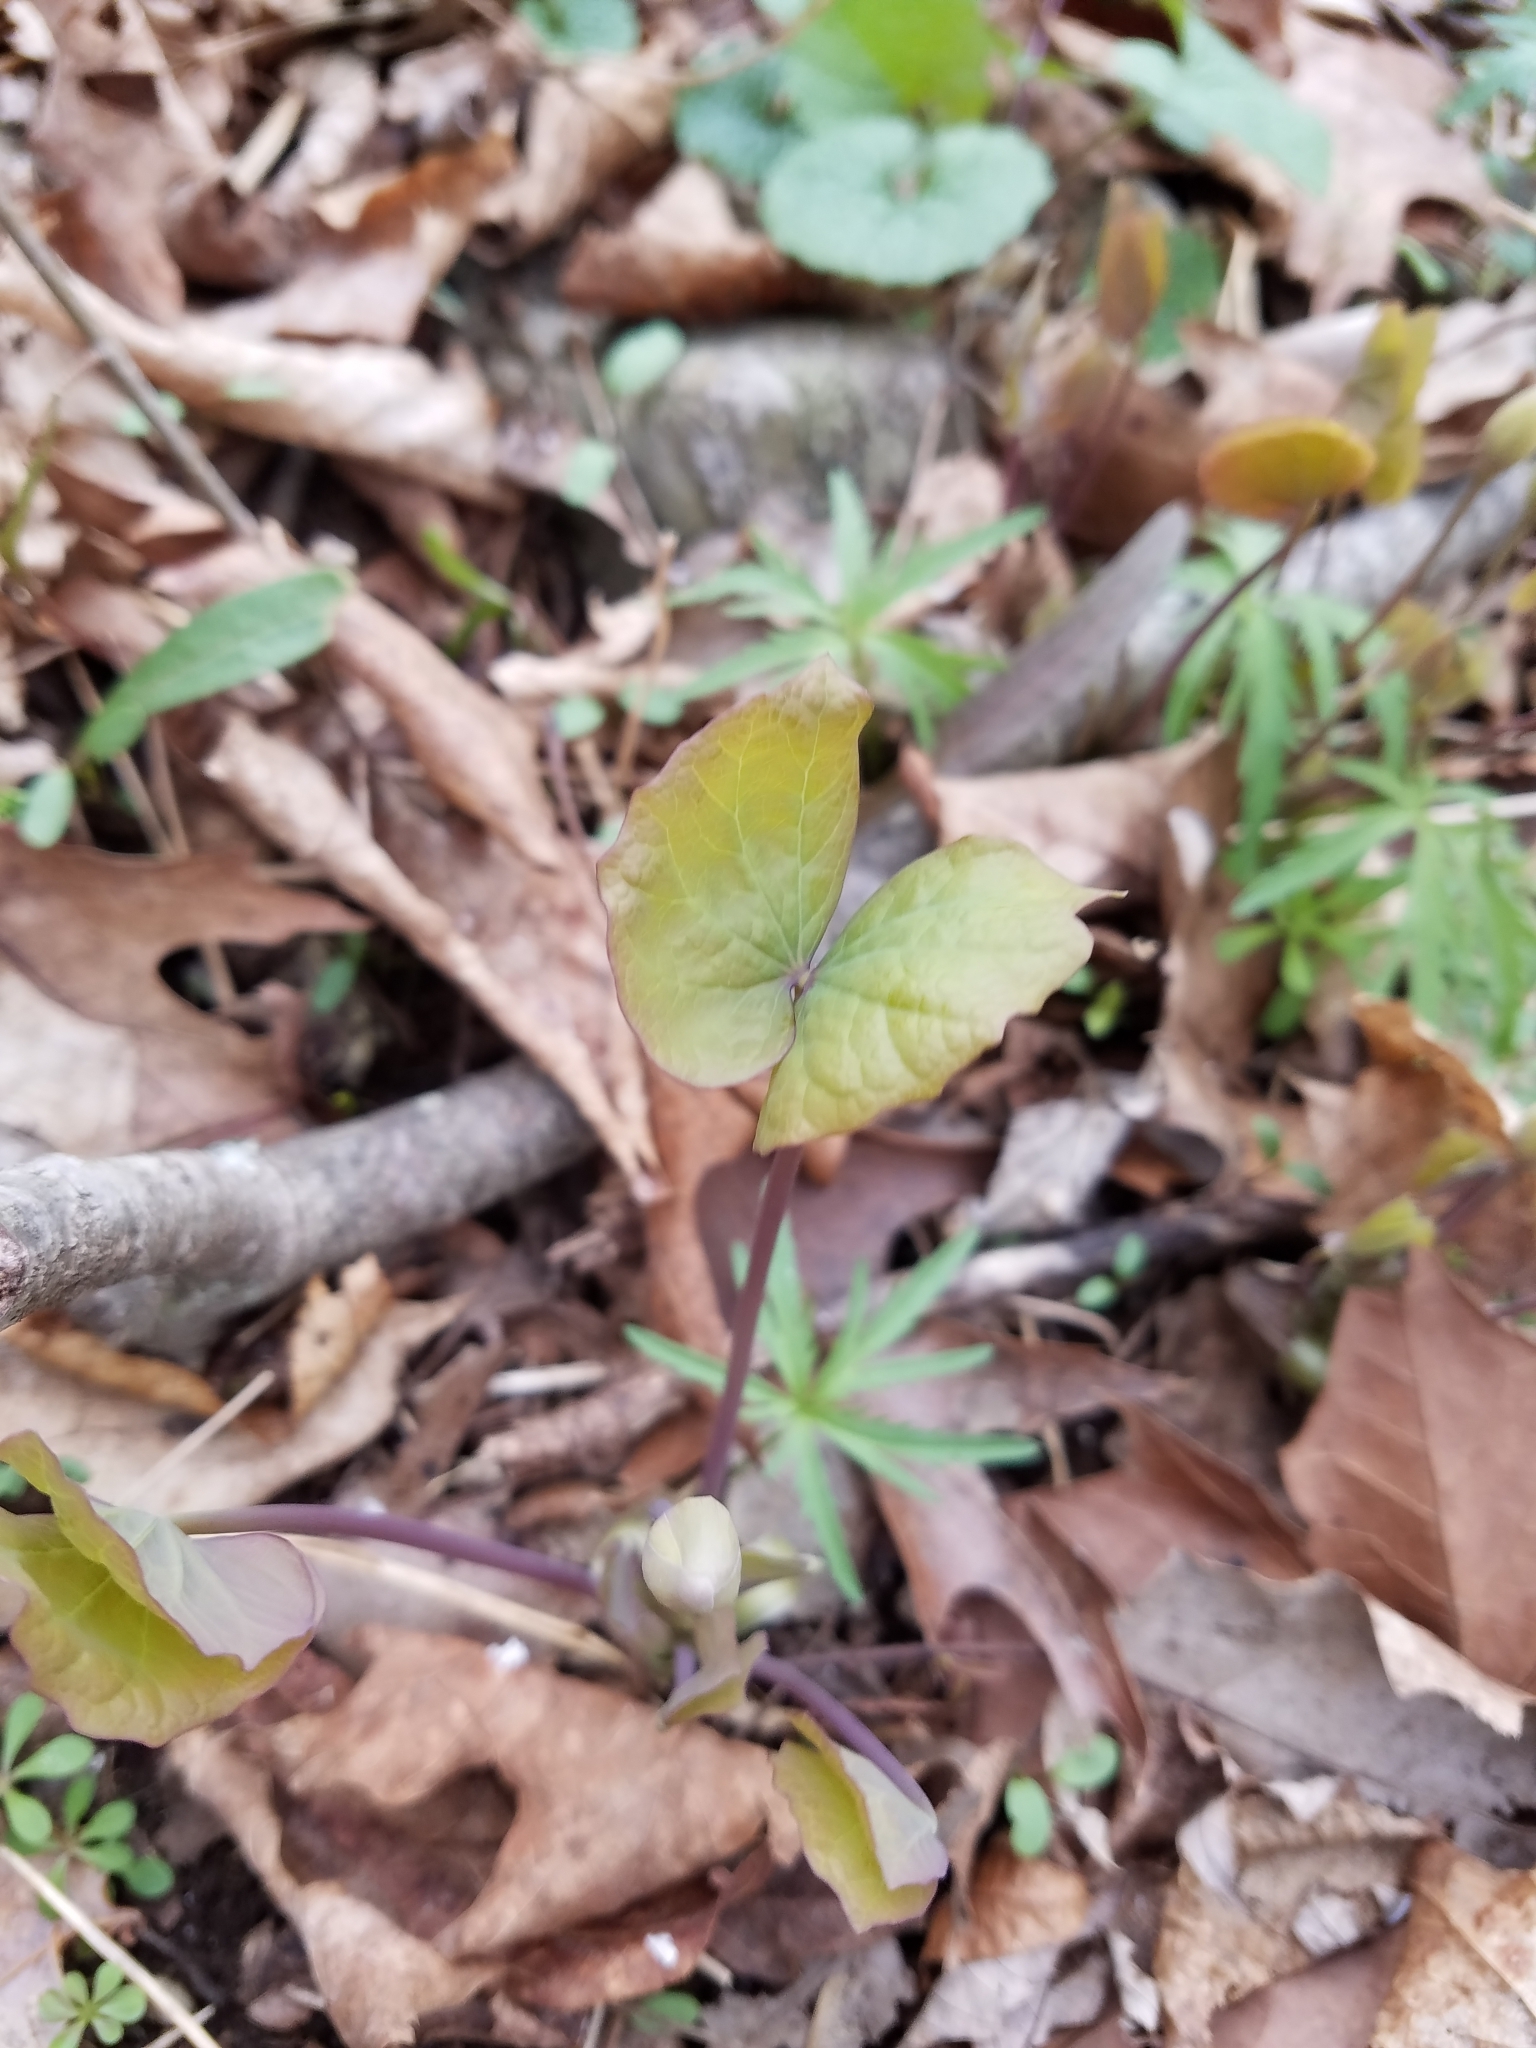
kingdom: Plantae
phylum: Tracheophyta
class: Magnoliopsida
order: Ranunculales
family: Berberidaceae
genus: Jeffersonia
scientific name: Jeffersonia diphylla
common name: Rheumatism-root
